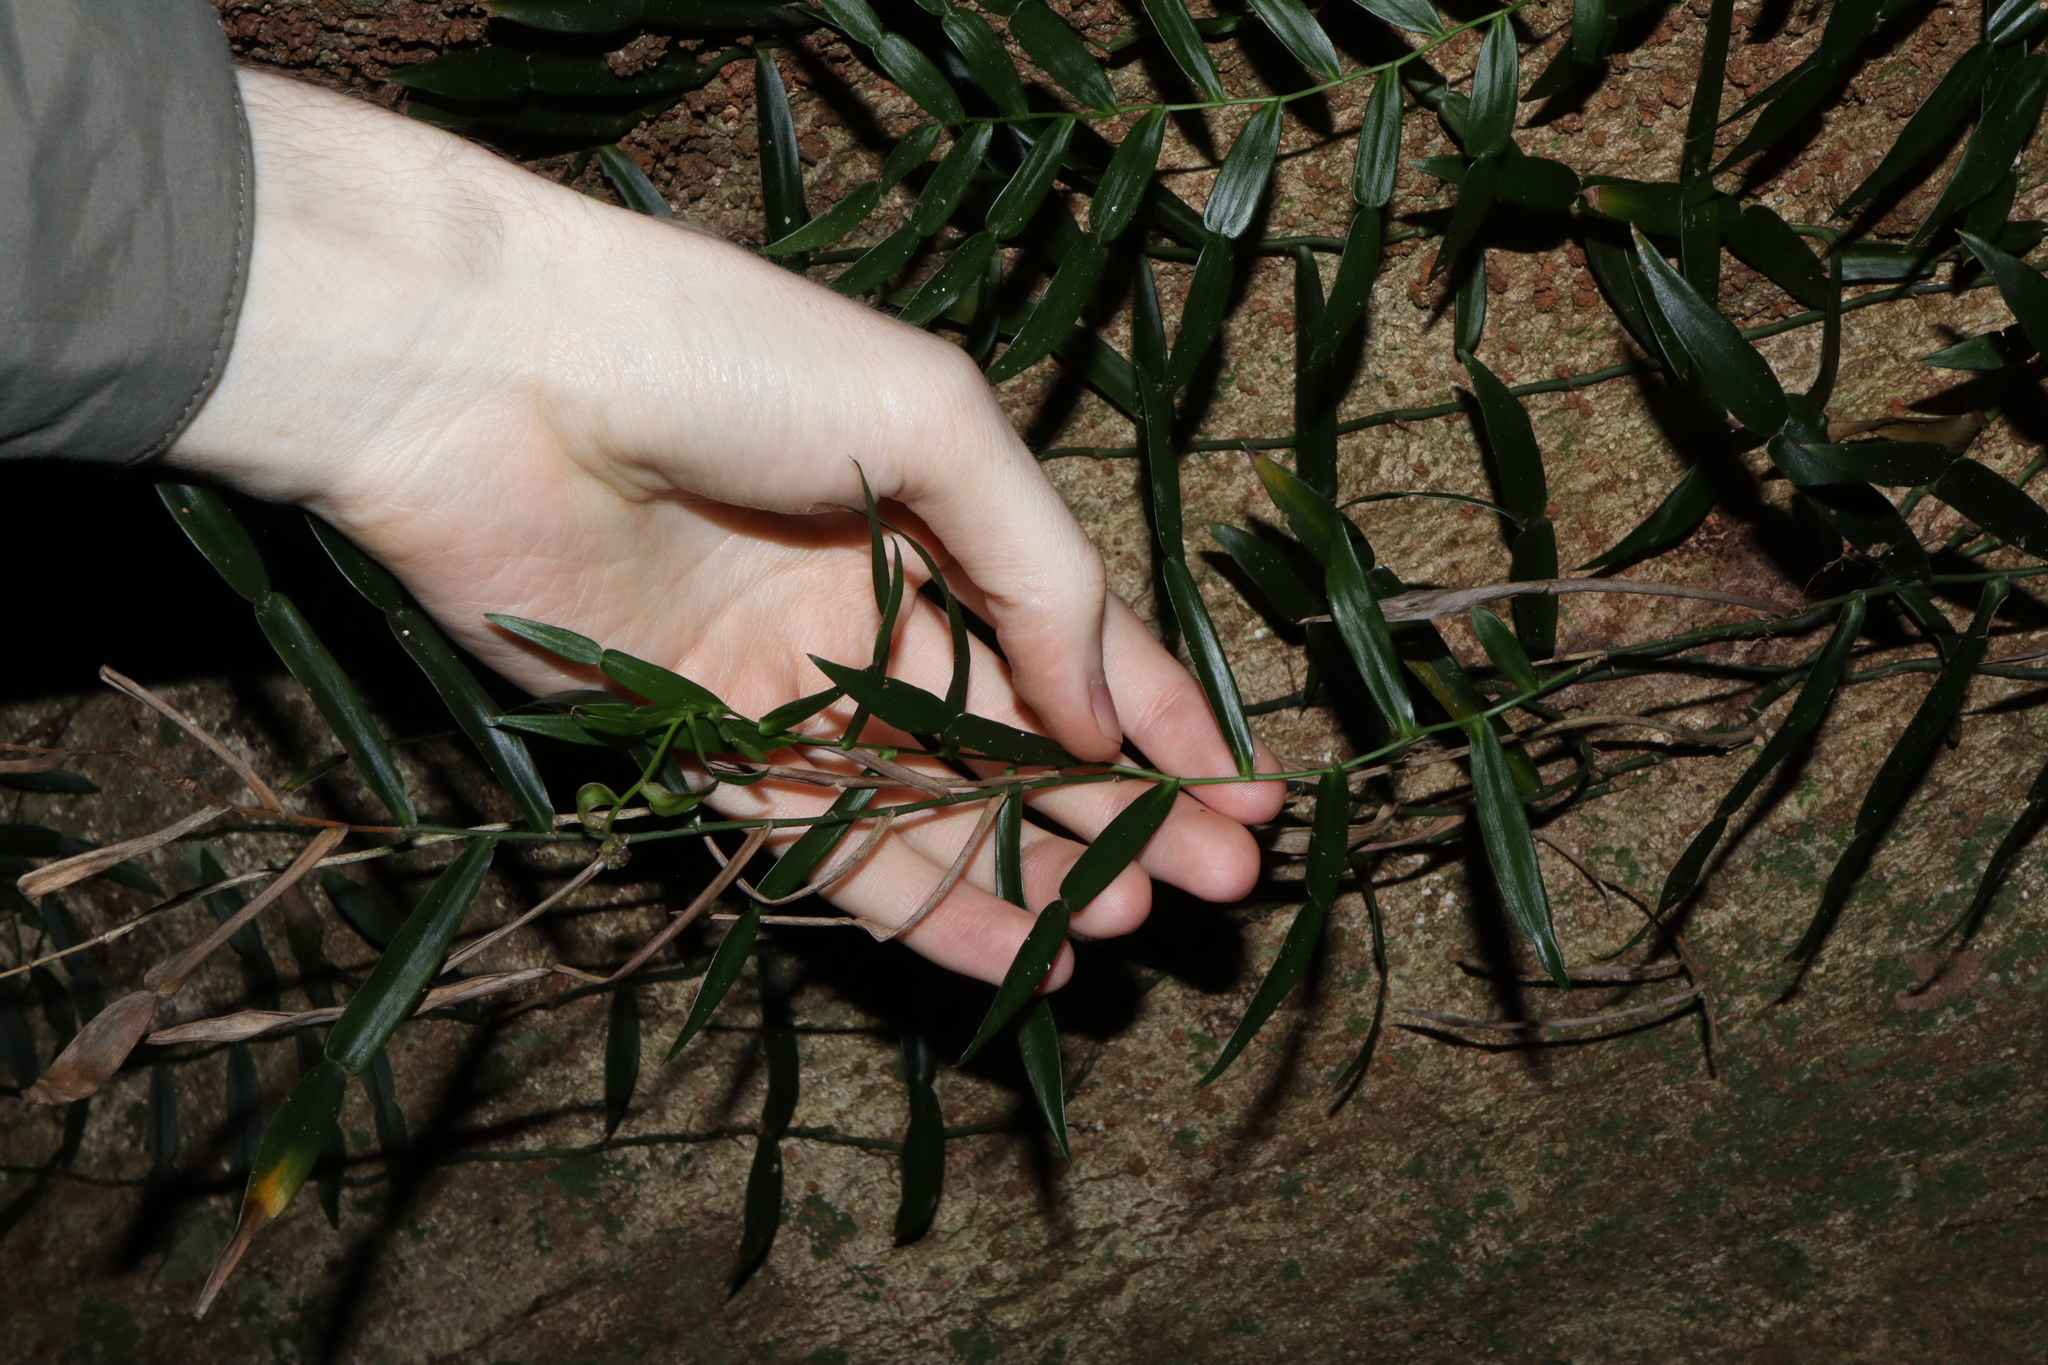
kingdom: Plantae
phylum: Tracheophyta
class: Liliopsida
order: Alismatales
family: Araceae
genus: Pothos
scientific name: Pothos longipes
